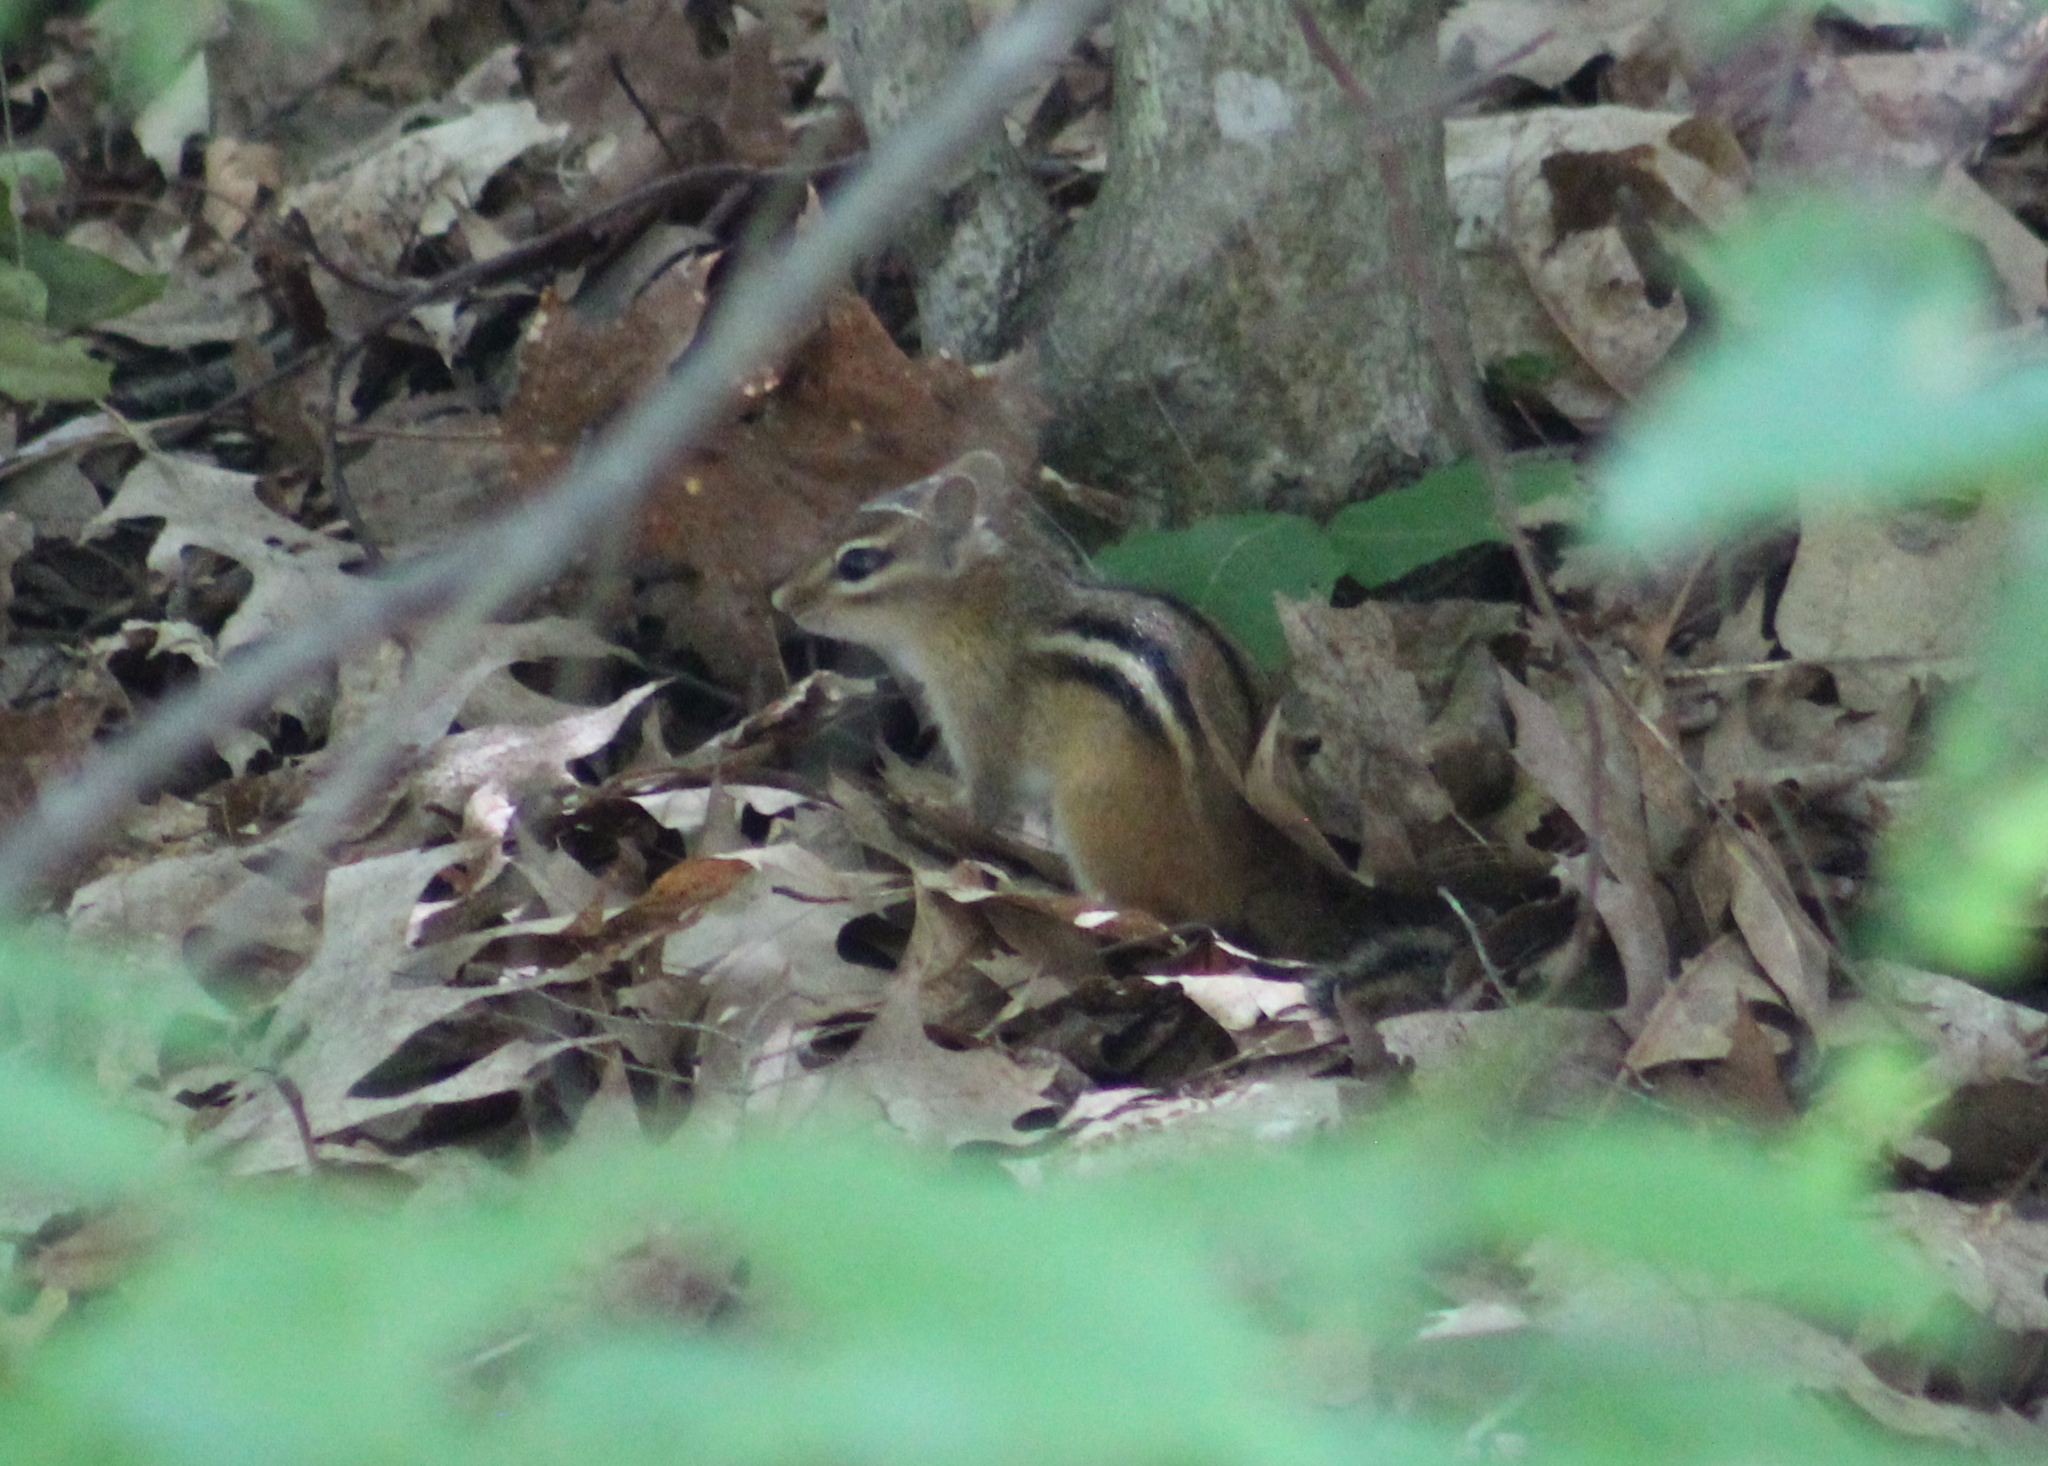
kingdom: Animalia
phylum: Chordata
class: Mammalia
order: Rodentia
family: Sciuridae
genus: Tamias
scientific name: Tamias striatus
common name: Eastern chipmunk
